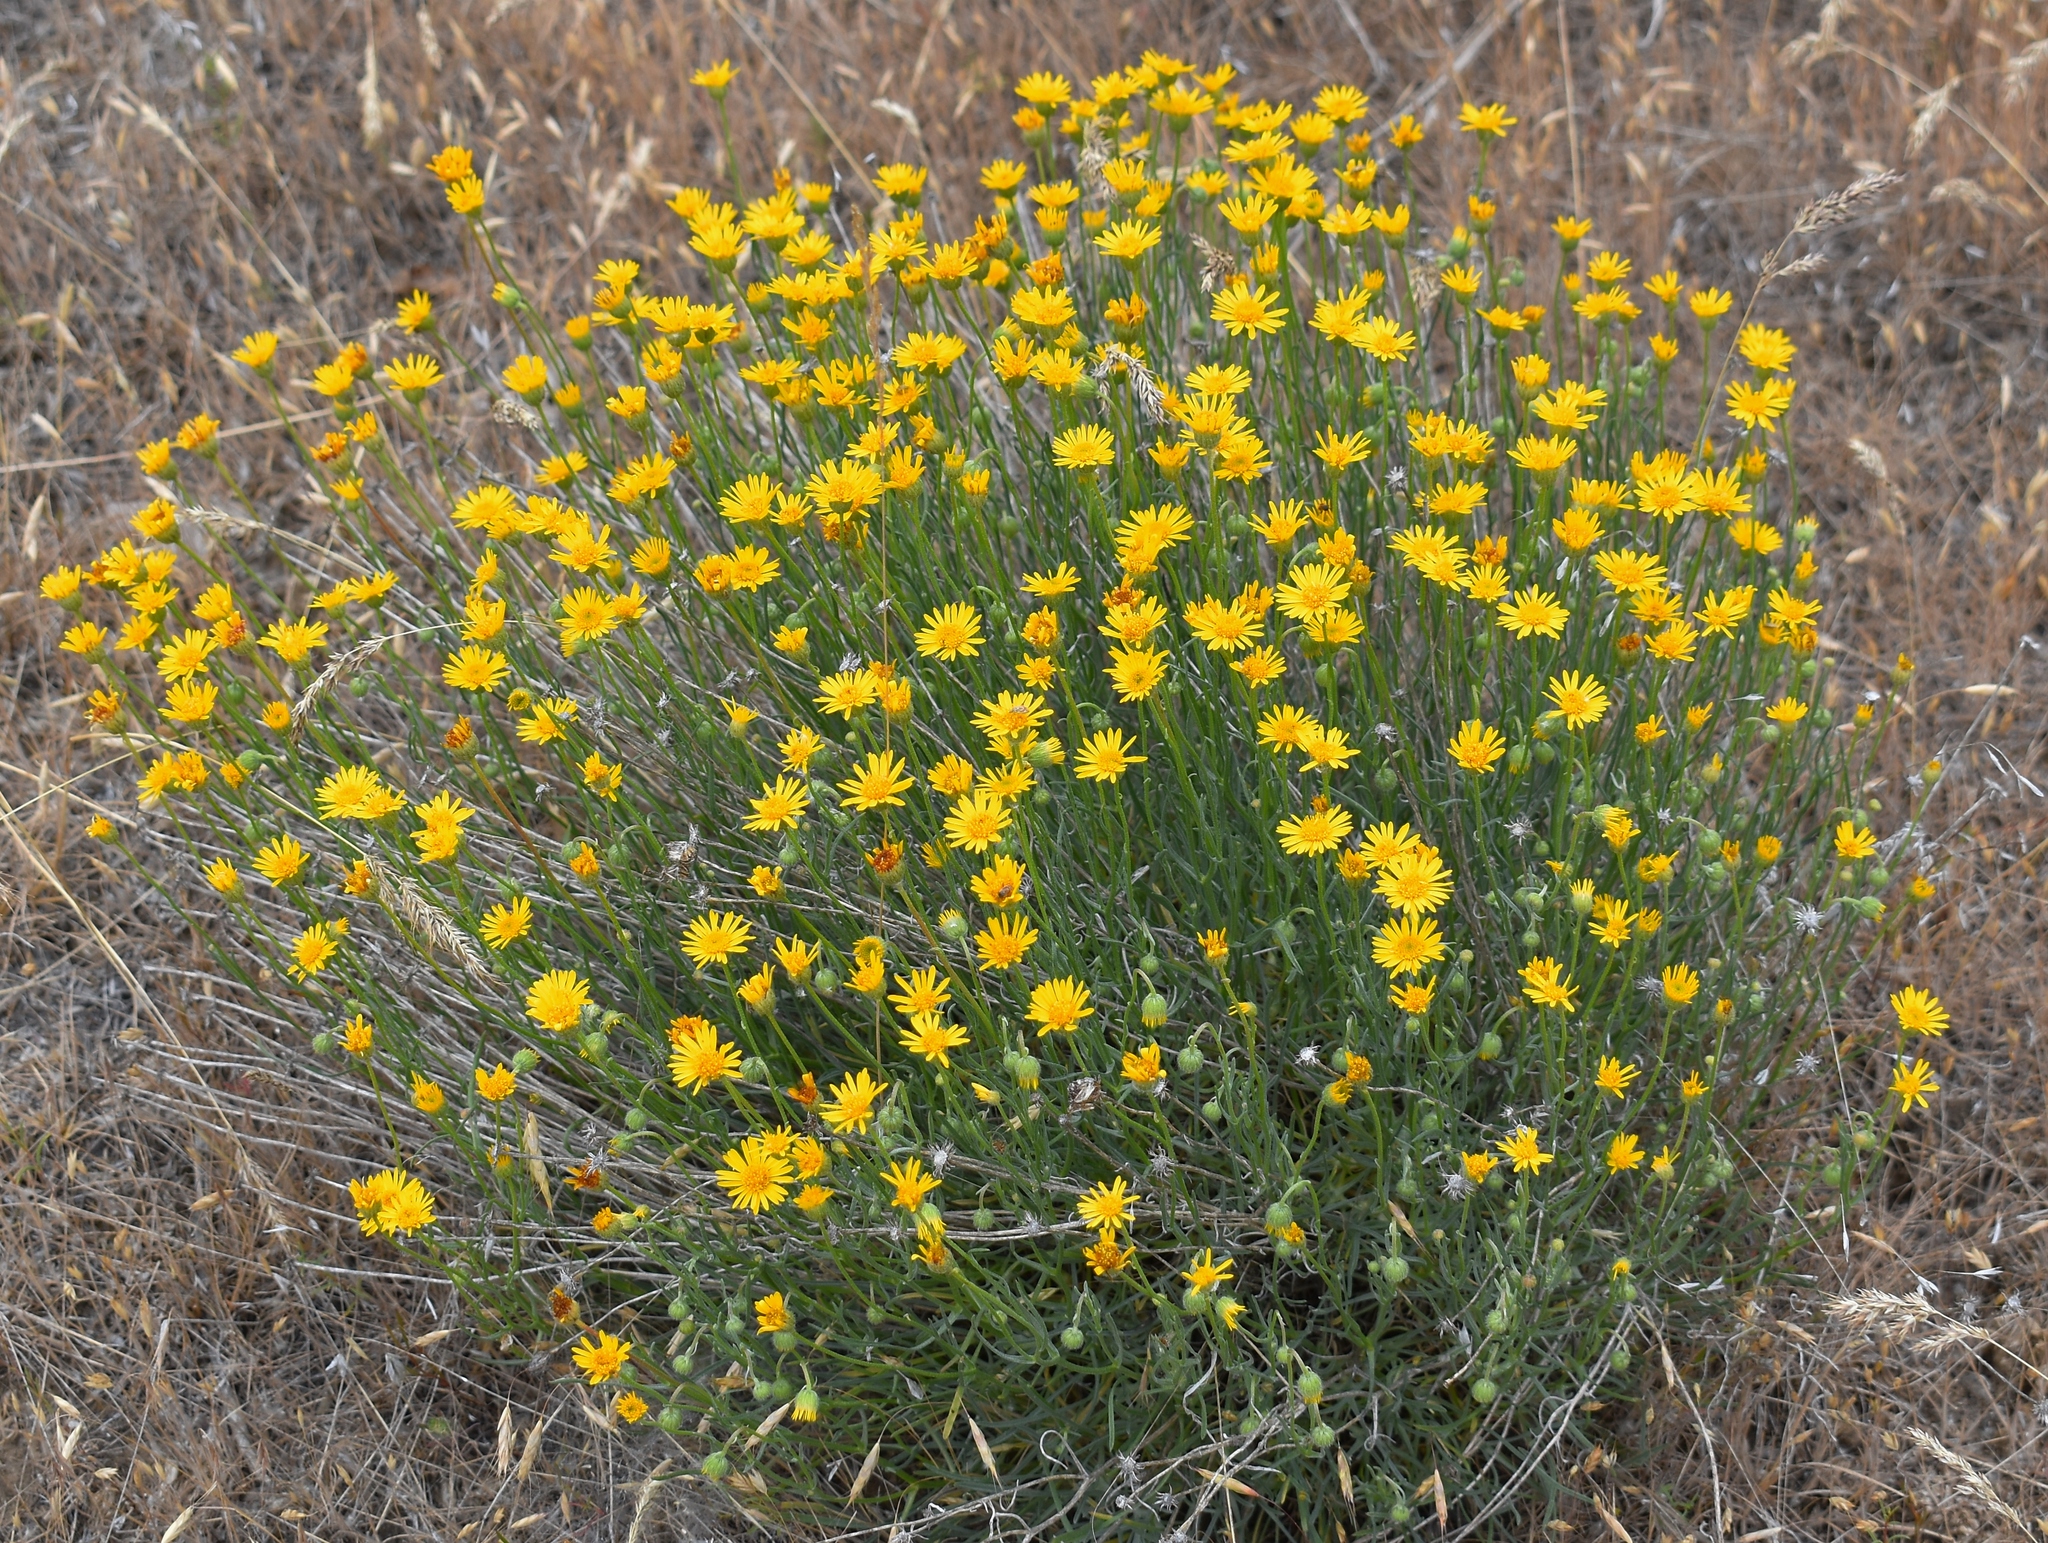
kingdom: Plantae
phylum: Tracheophyta
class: Magnoliopsida
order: Asterales
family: Asteraceae
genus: Erigeron
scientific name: Erigeron linearis
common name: Desert yellow fleabane
